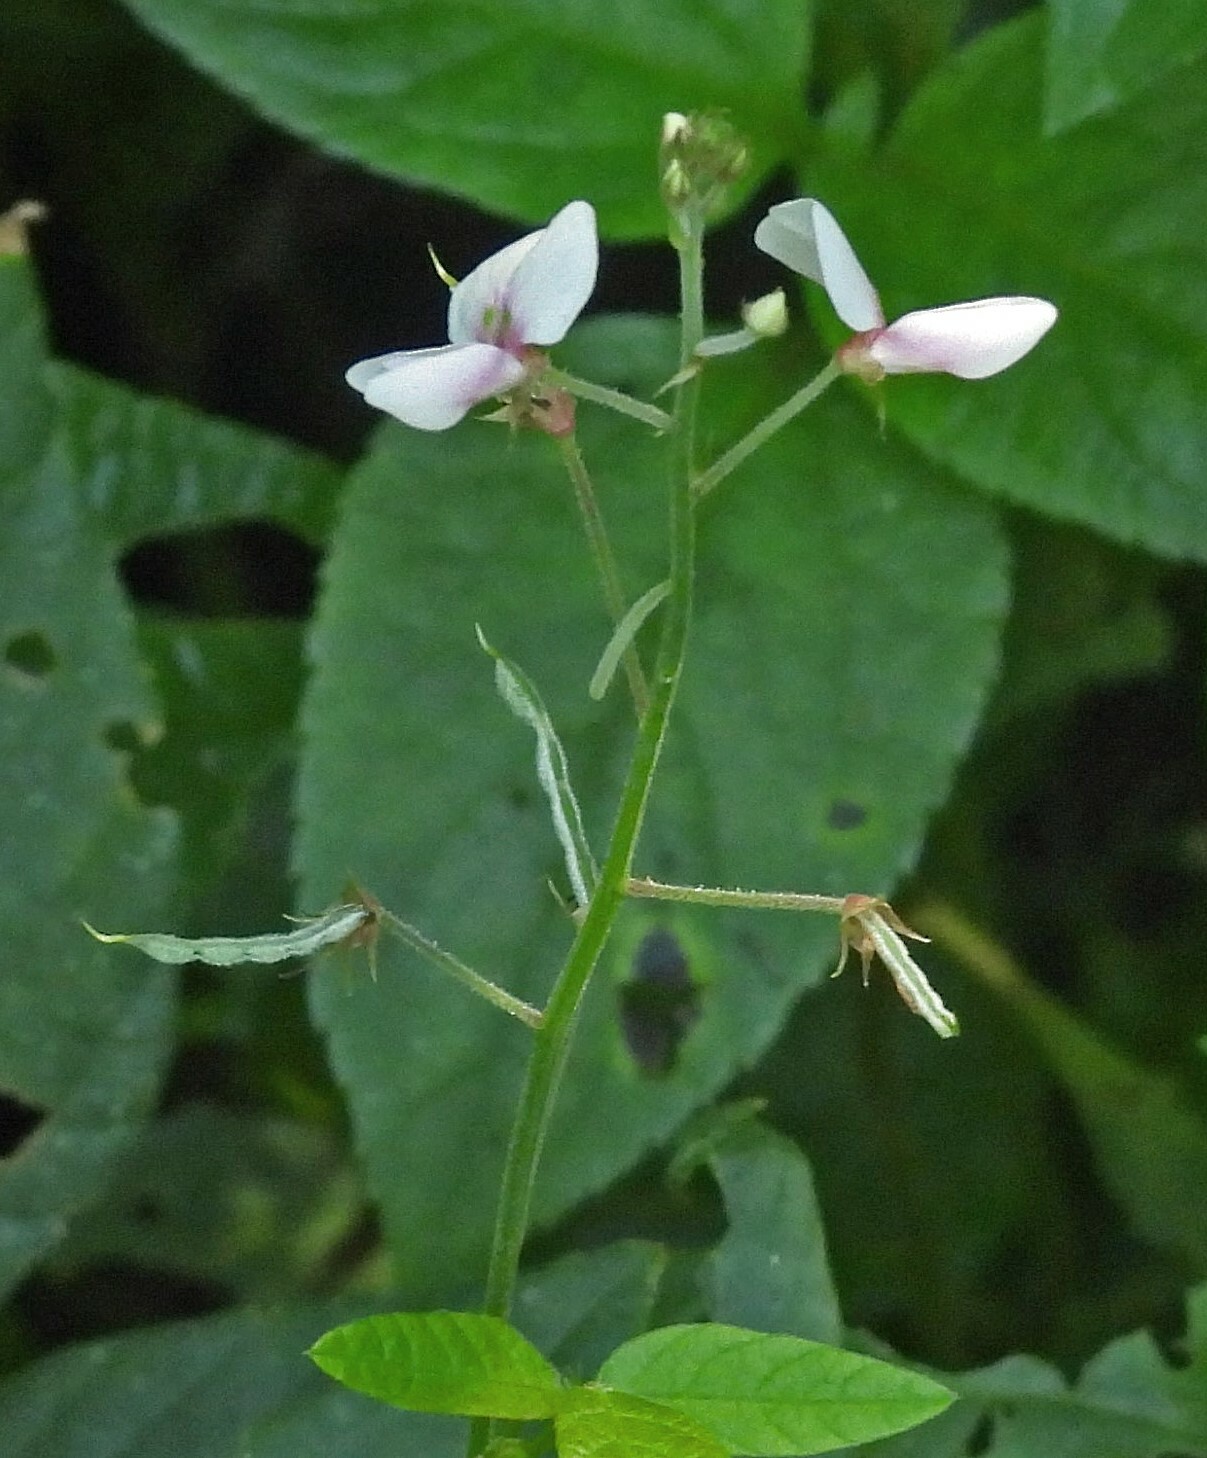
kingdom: Plantae
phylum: Tracheophyta
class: Magnoliopsida
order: Fabales
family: Fabaceae
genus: Desmodium
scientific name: Desmodium affine
